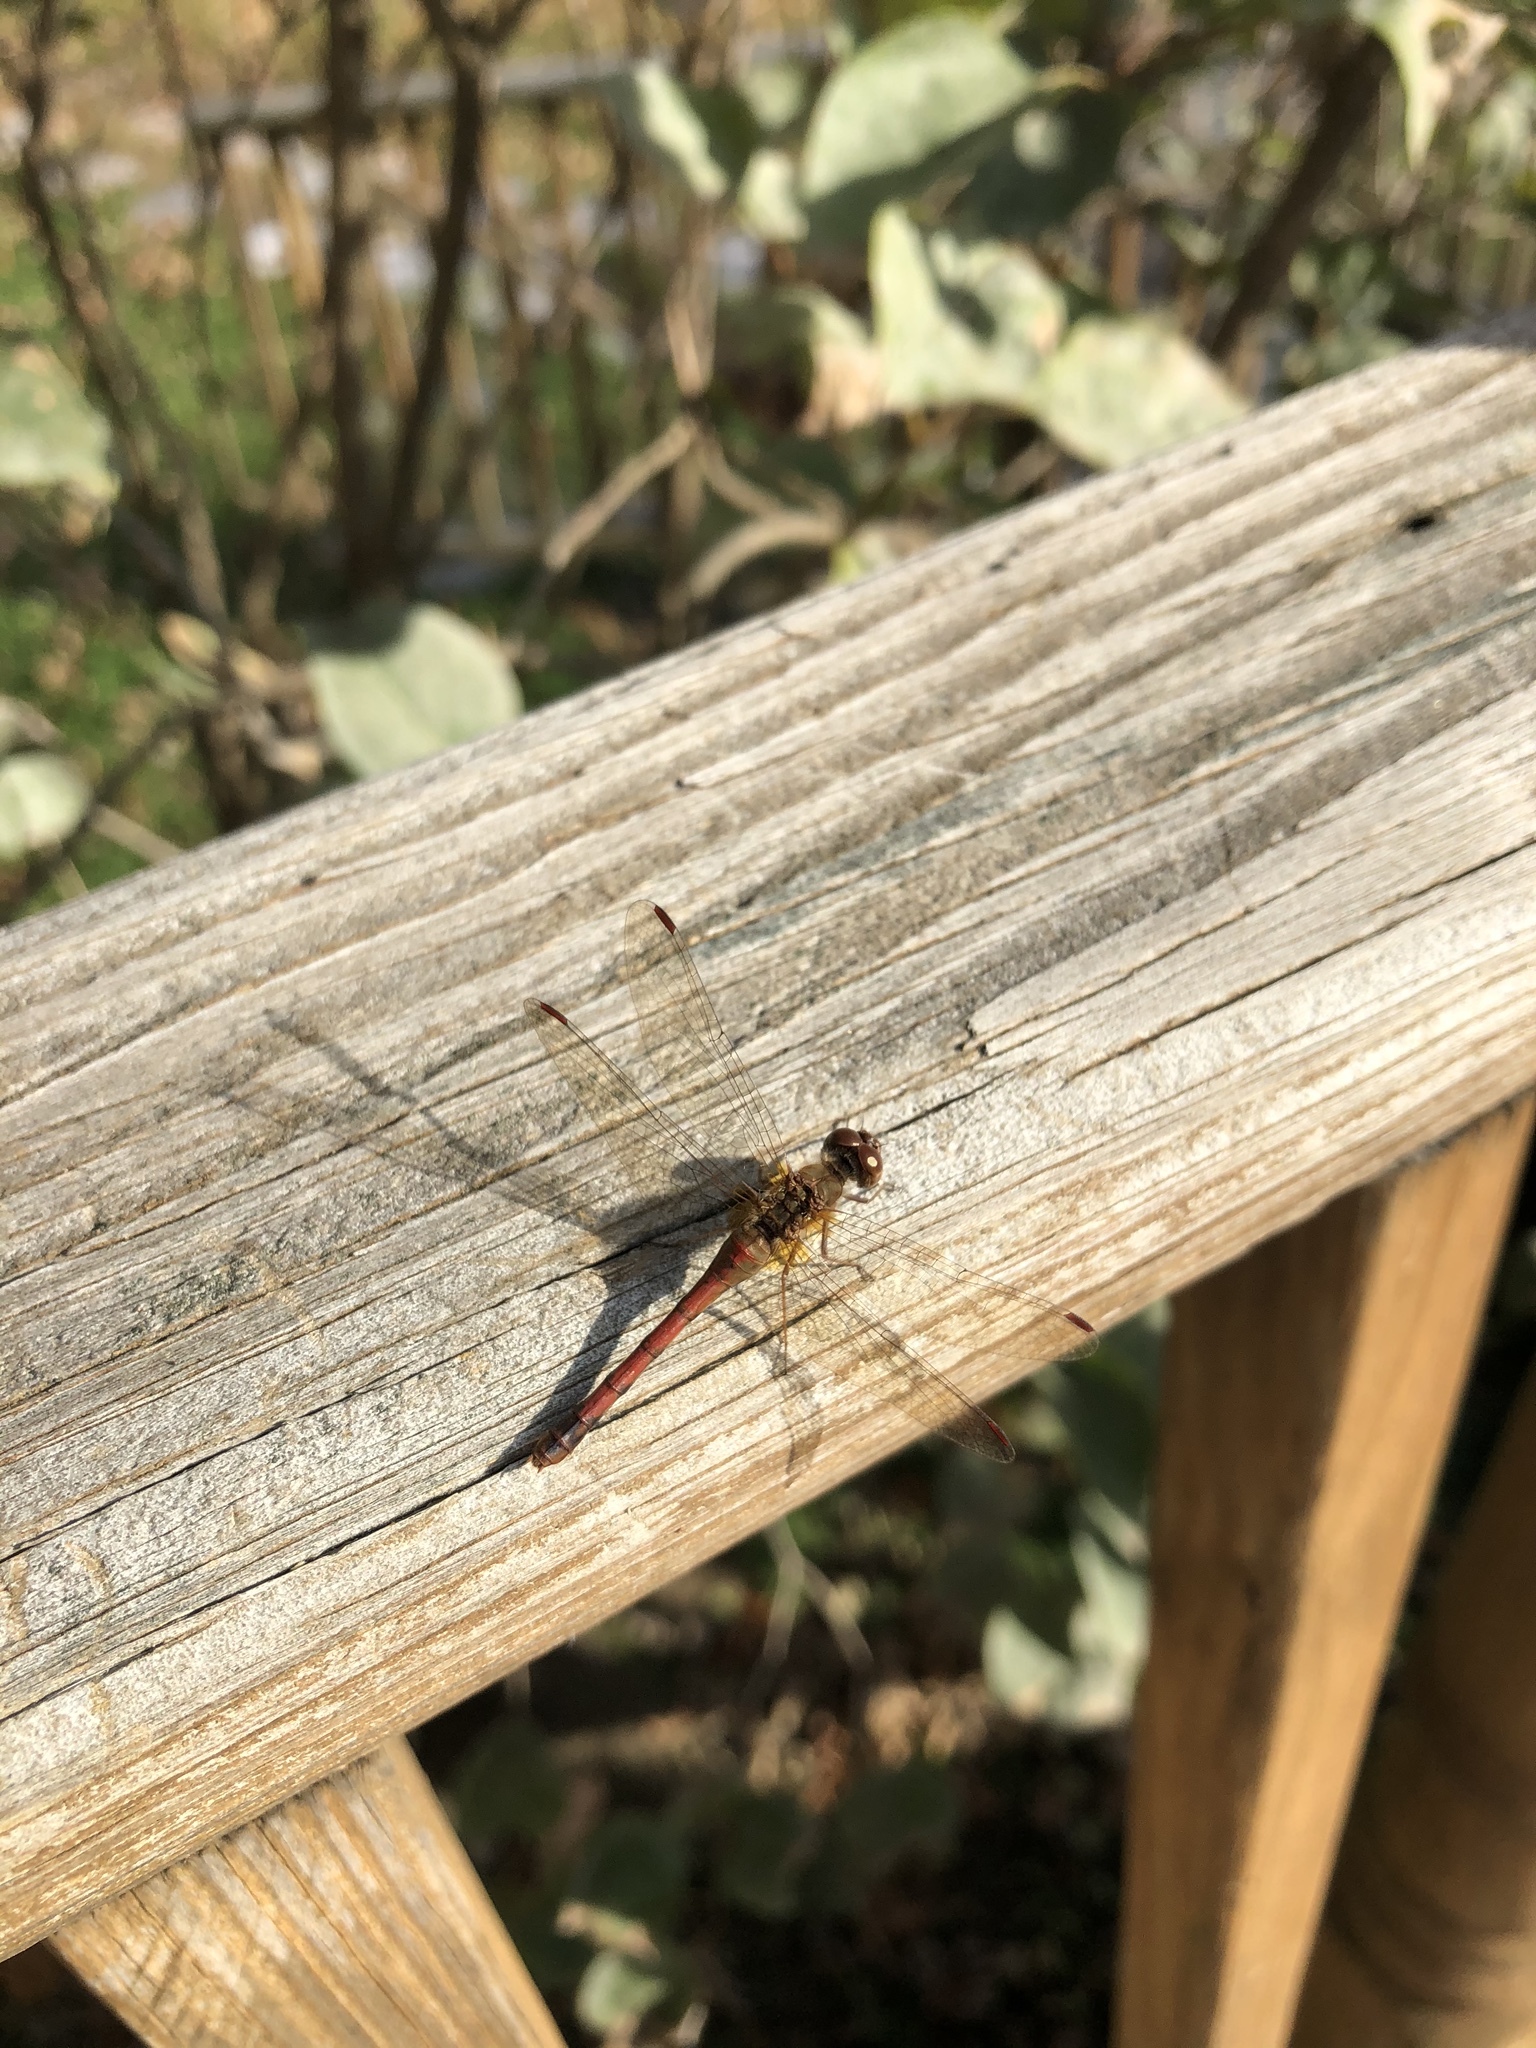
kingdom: Animalia
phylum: Arthropoda
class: Insecta
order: Odonata
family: Libellulidae
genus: Sympetrum
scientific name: Sympetrum vicinum
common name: Autumn meadowhawk
